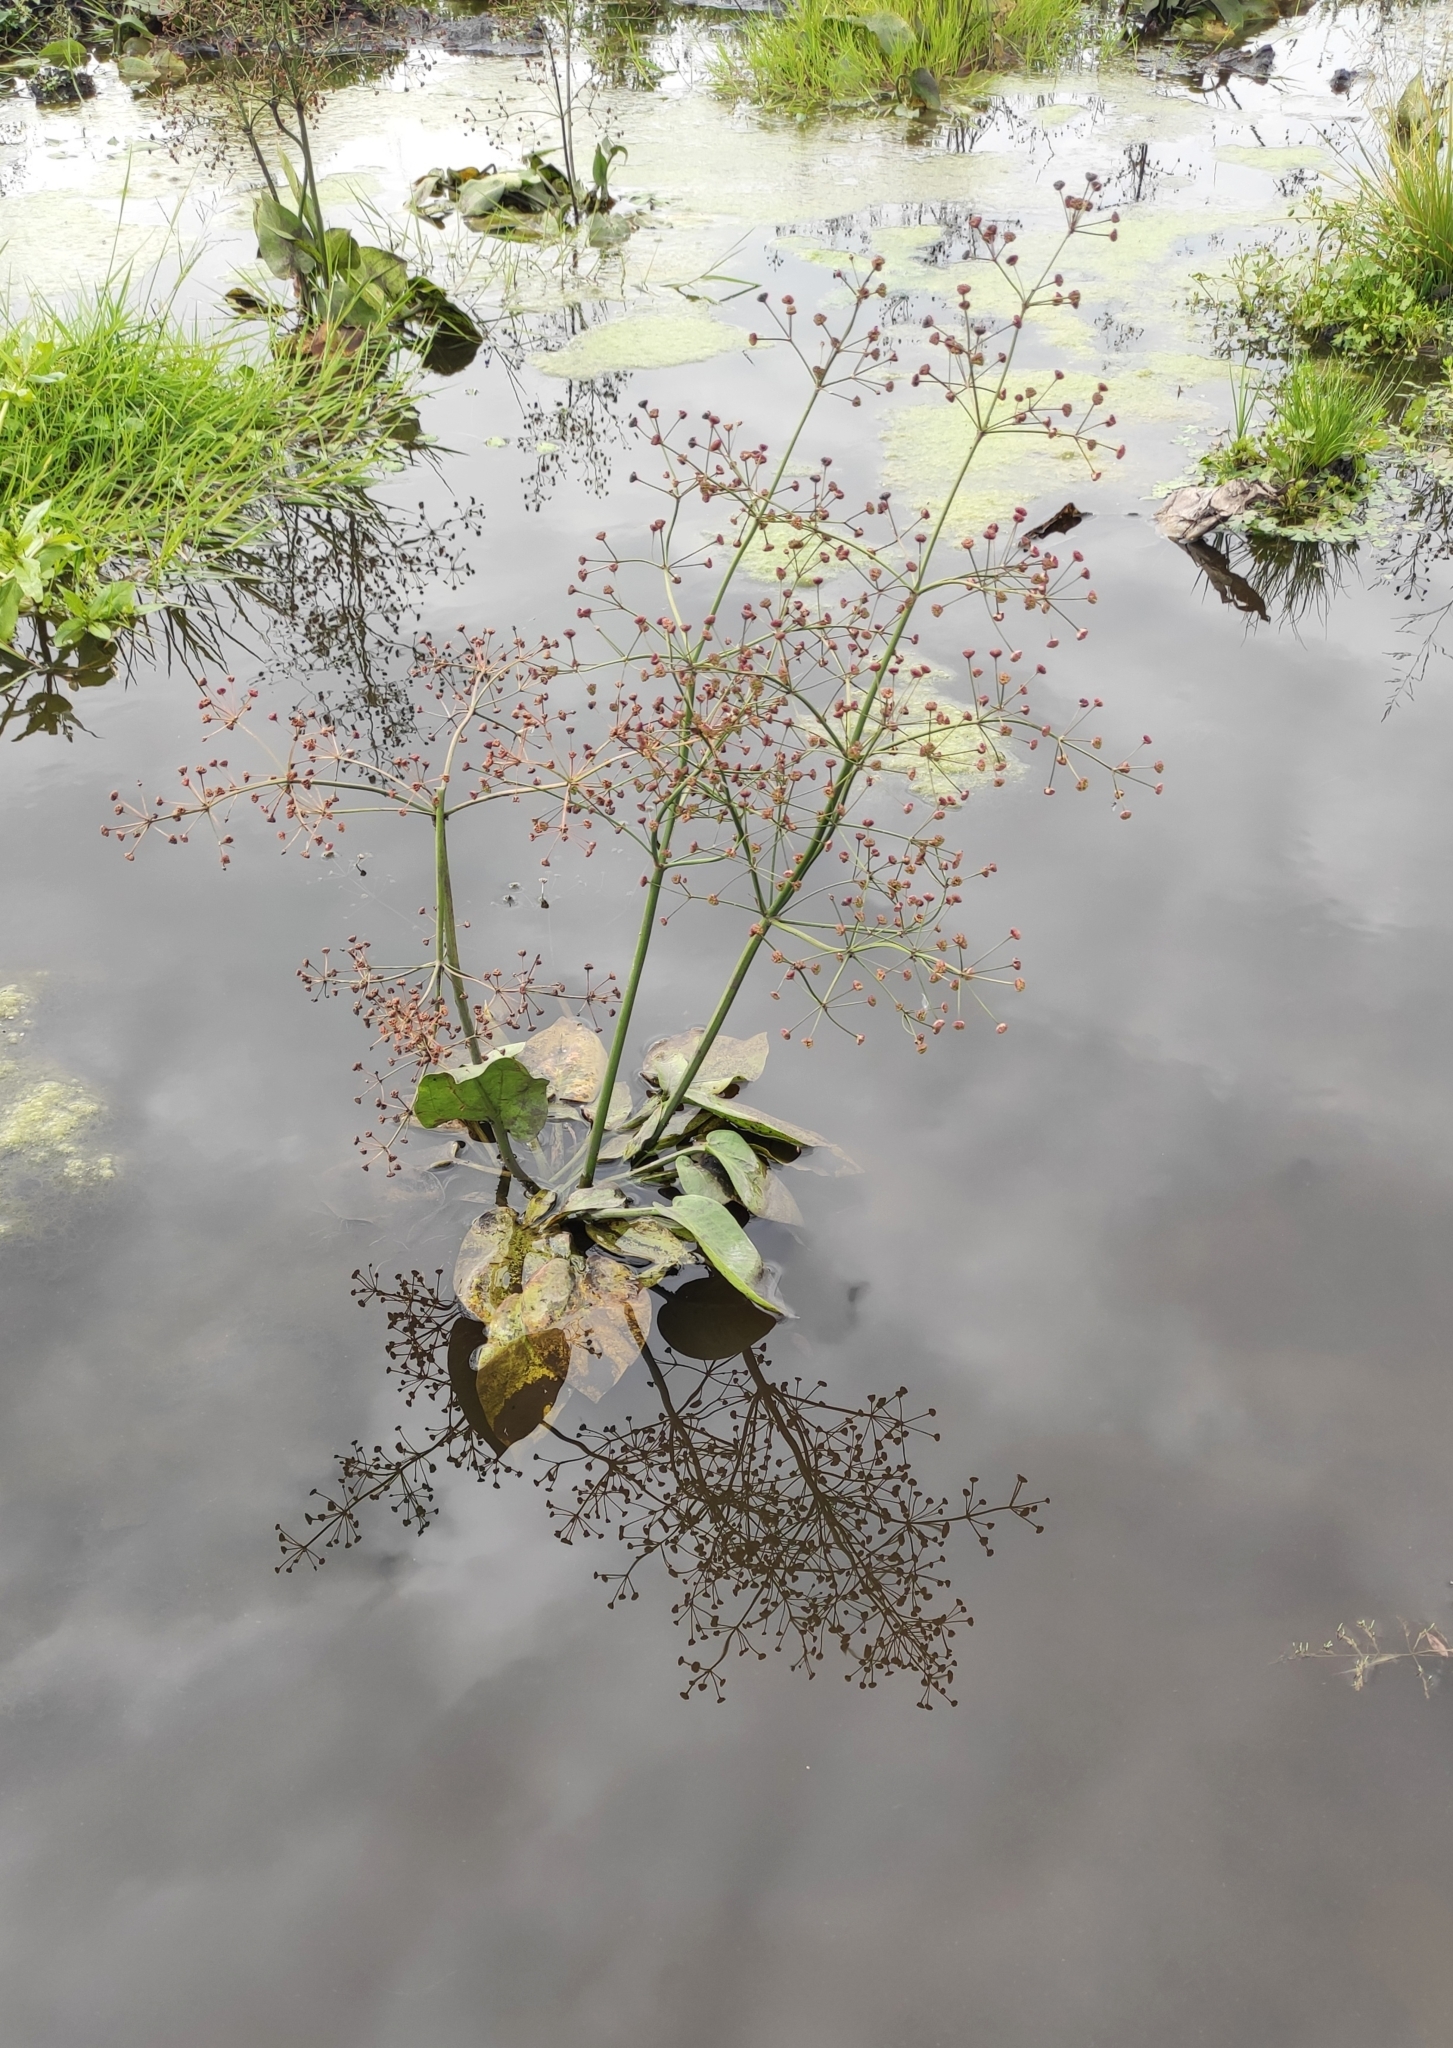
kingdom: Plantae
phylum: Tracheophyta
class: Liliopsida
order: Alismatales
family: Alismataceae
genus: Alisma
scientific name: Alisma plantago-aquatica
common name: Water-plantain
